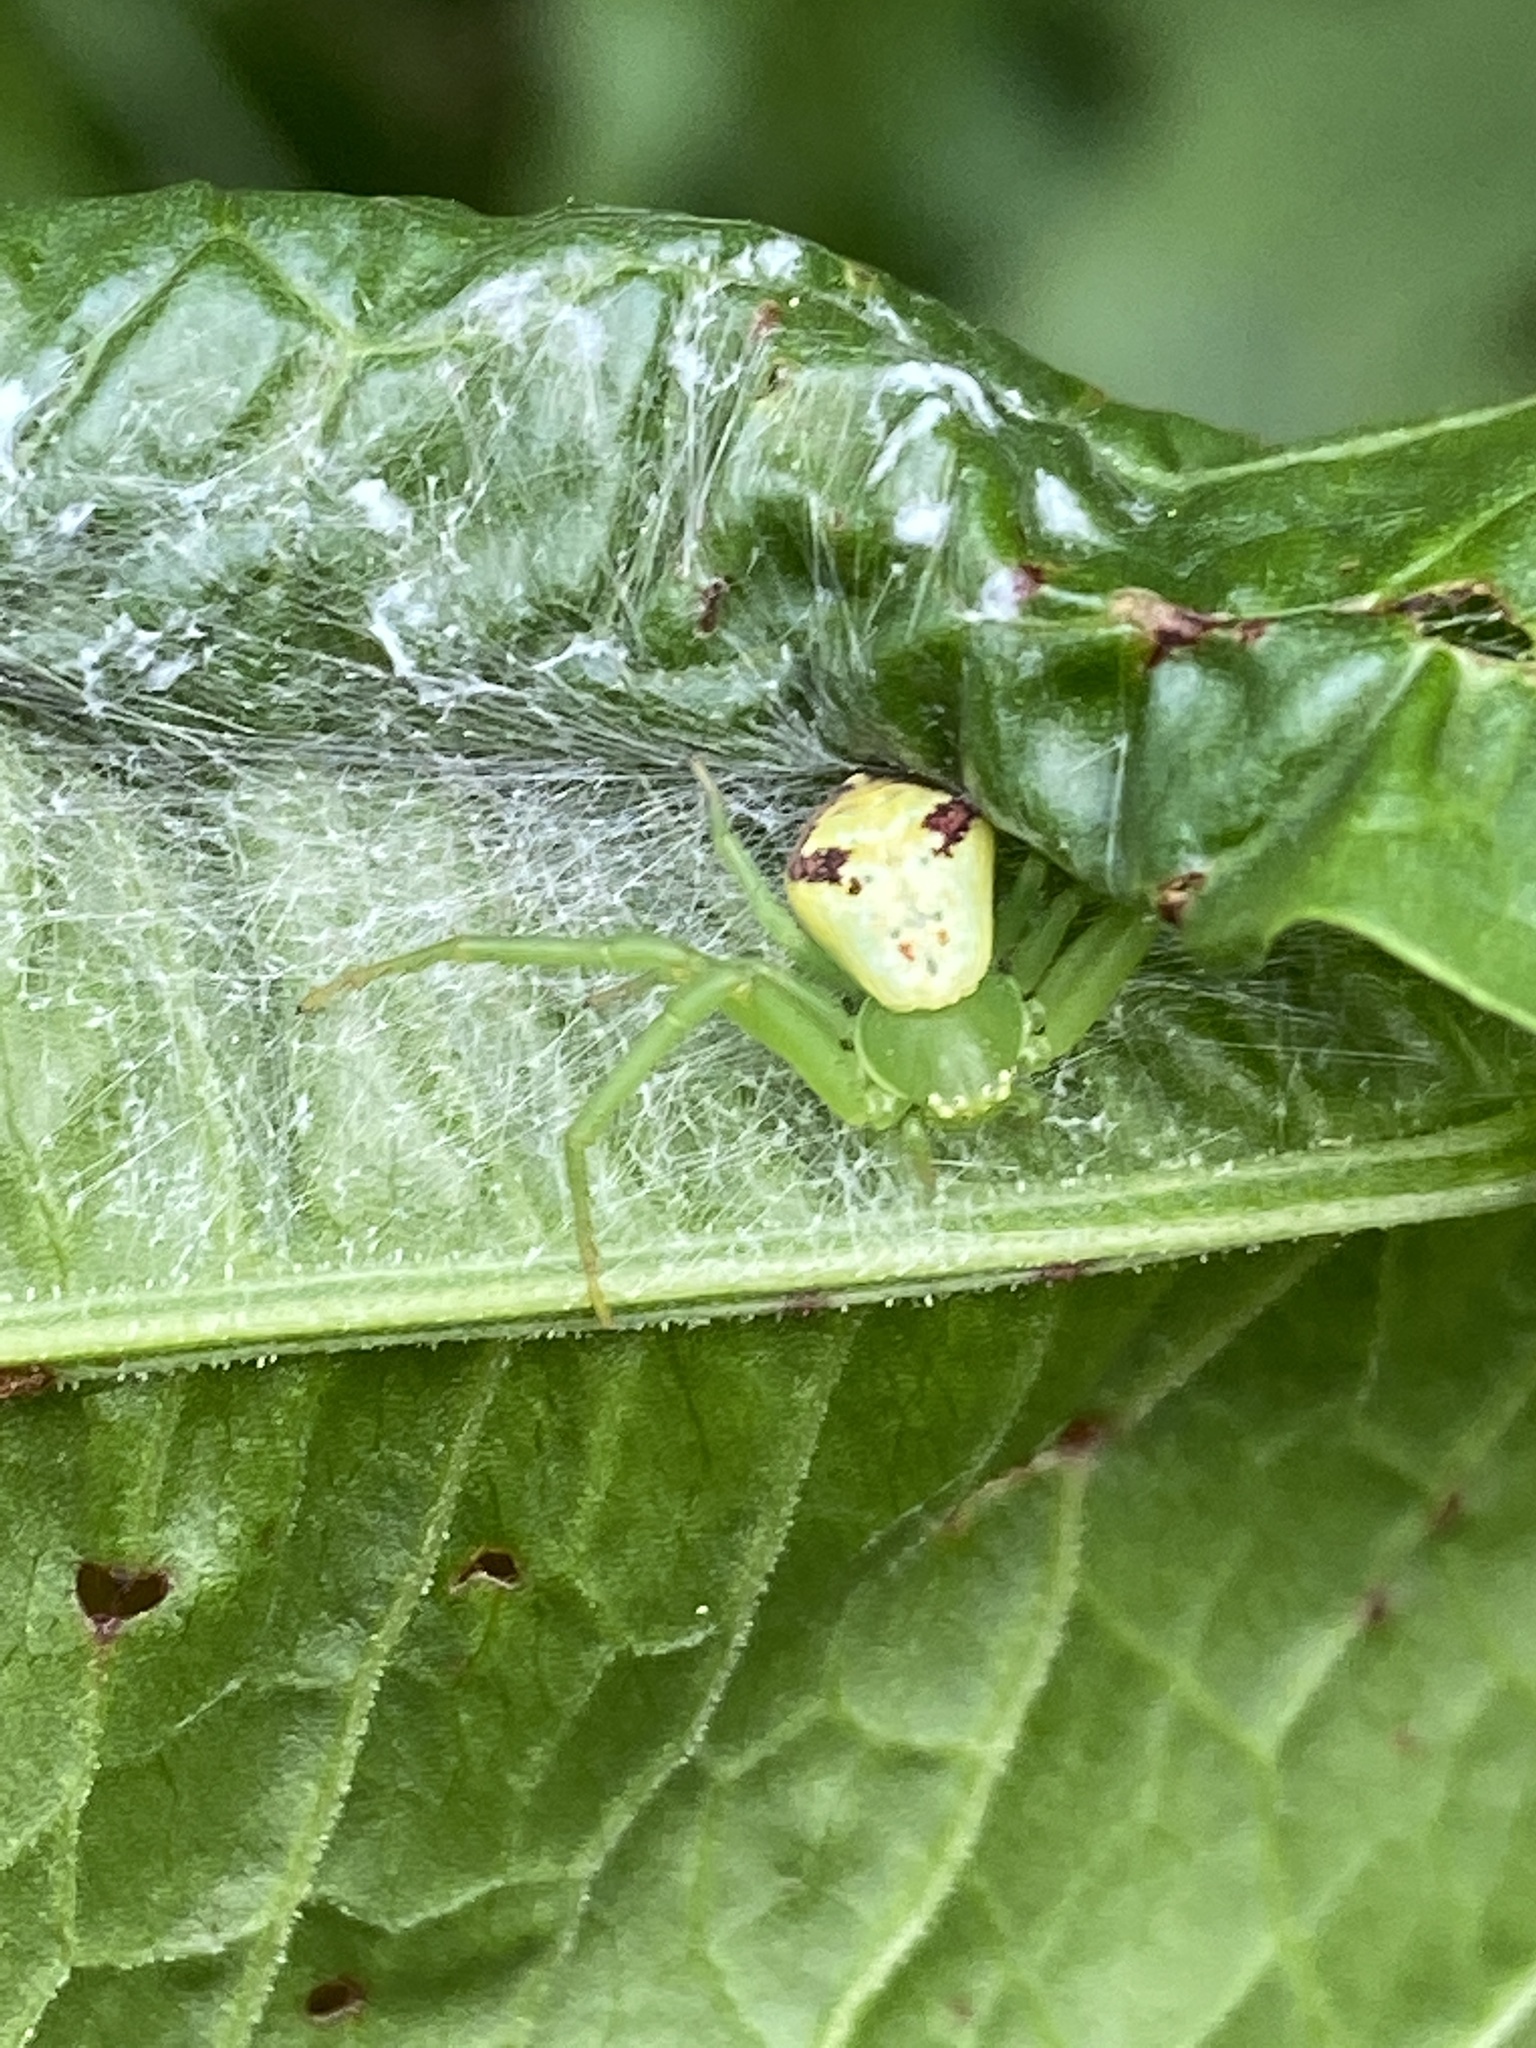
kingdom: Animalia
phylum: Arthropoda
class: Arachnida
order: Araneae
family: Thomisidae
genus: Ebrechtella
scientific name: Ebrechtella tricuspidata
